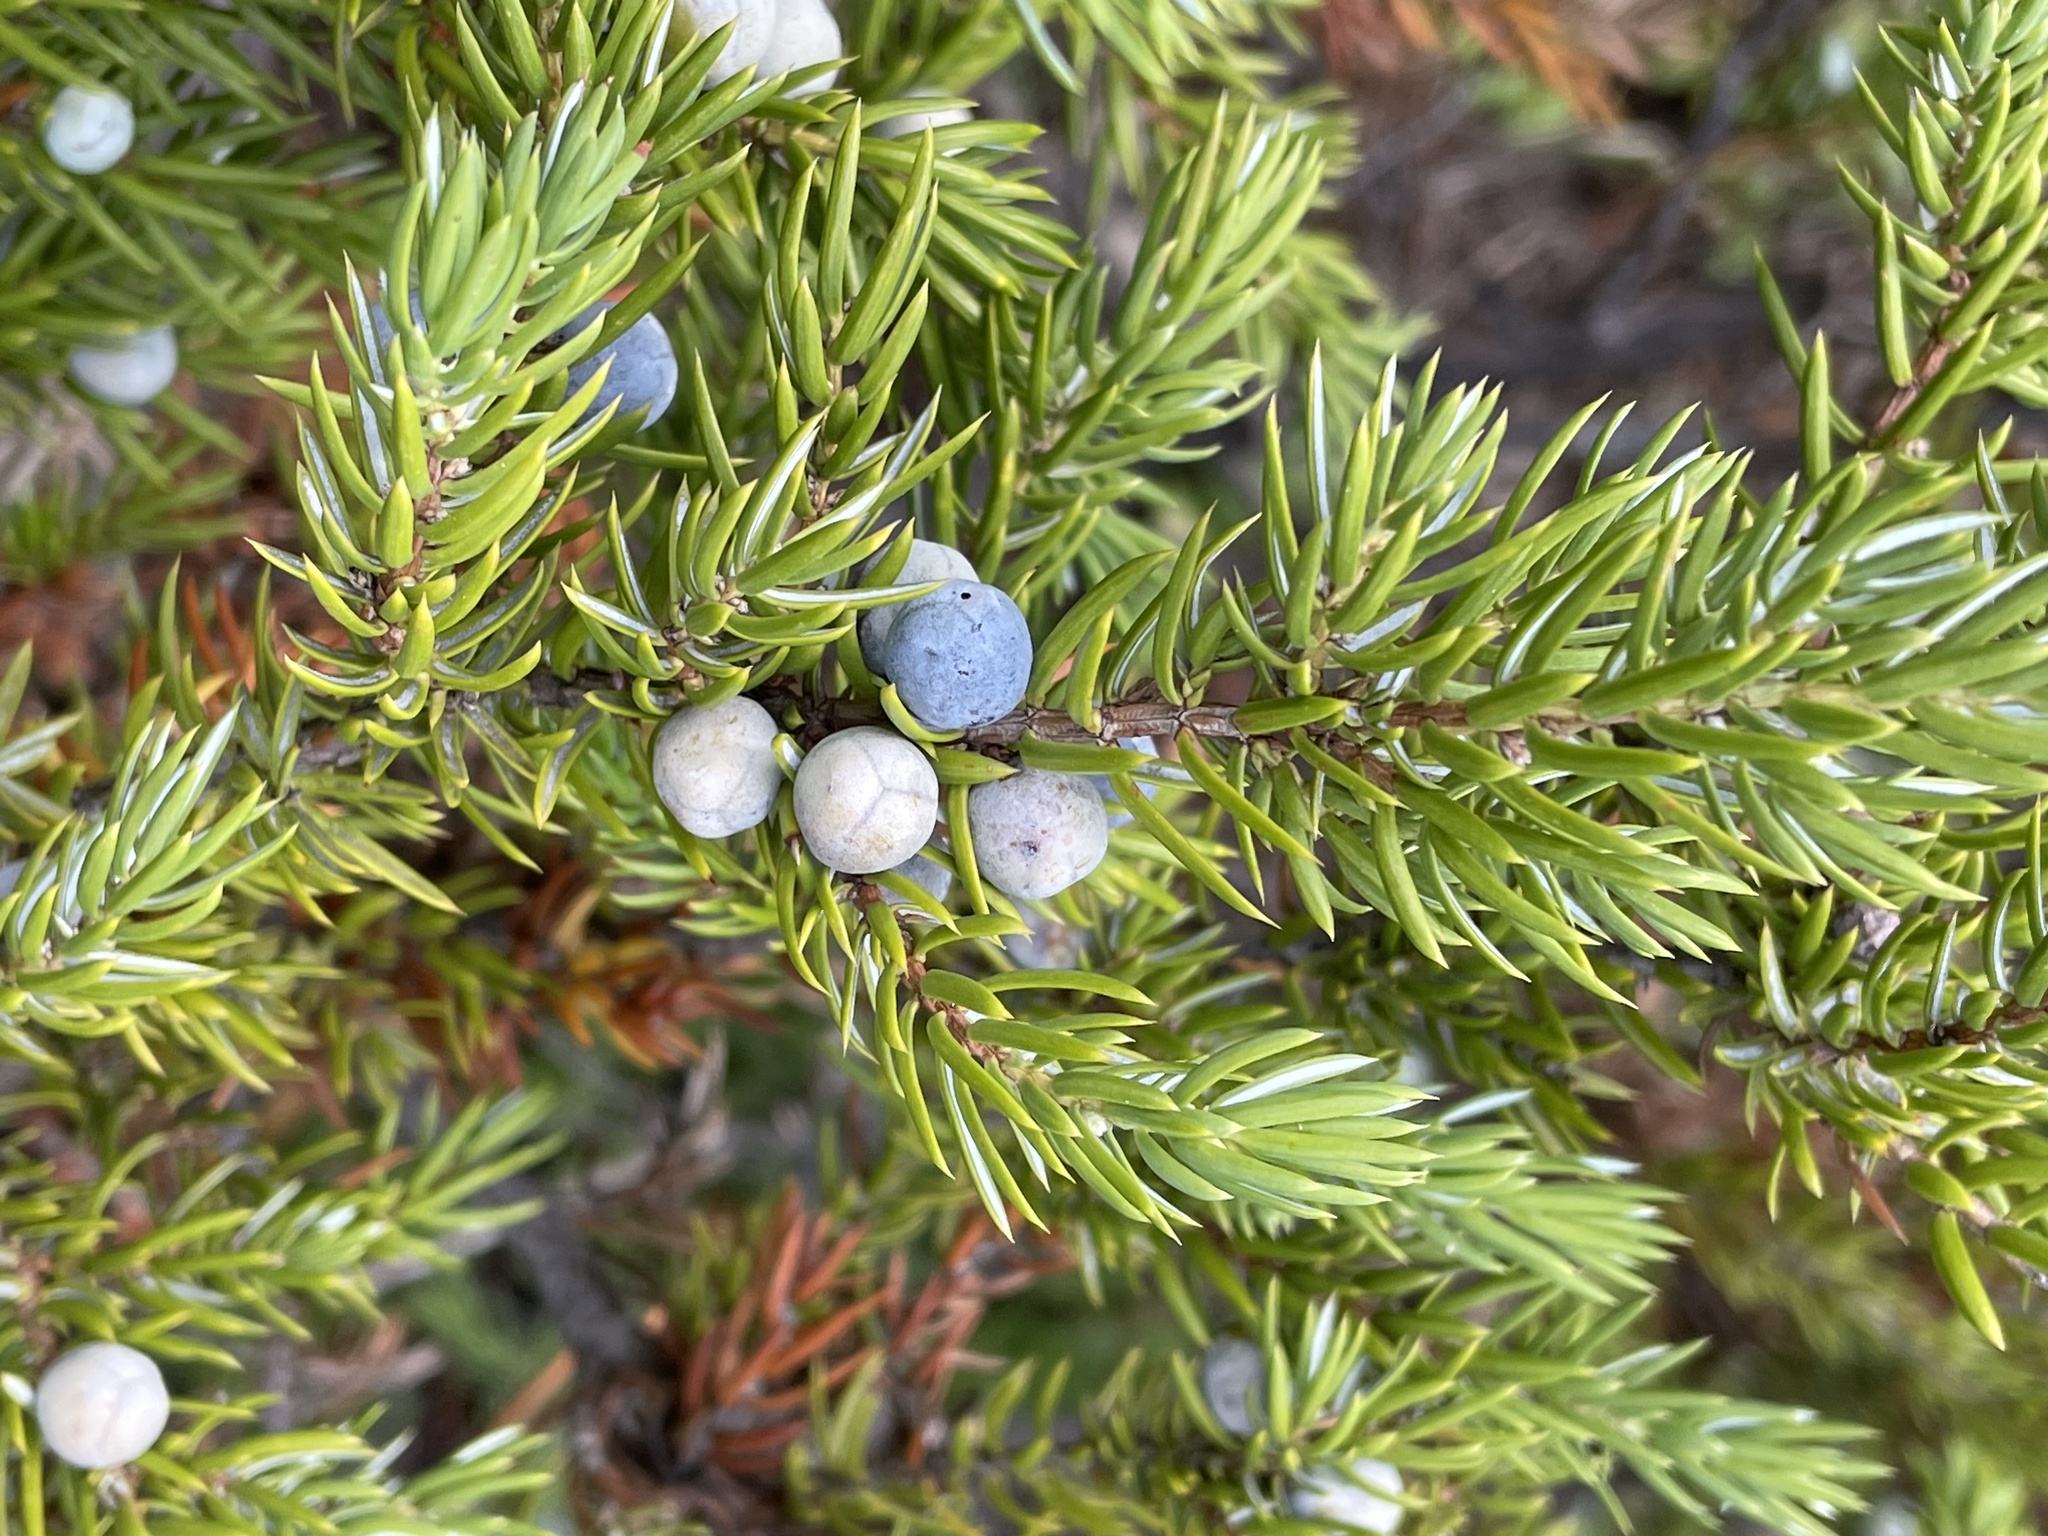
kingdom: Plantae
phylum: Tracheophyta
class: Pinopsida
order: Pinales
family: Cupressaceae
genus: Juniperus
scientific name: Juniperus communis
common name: Common juniper
